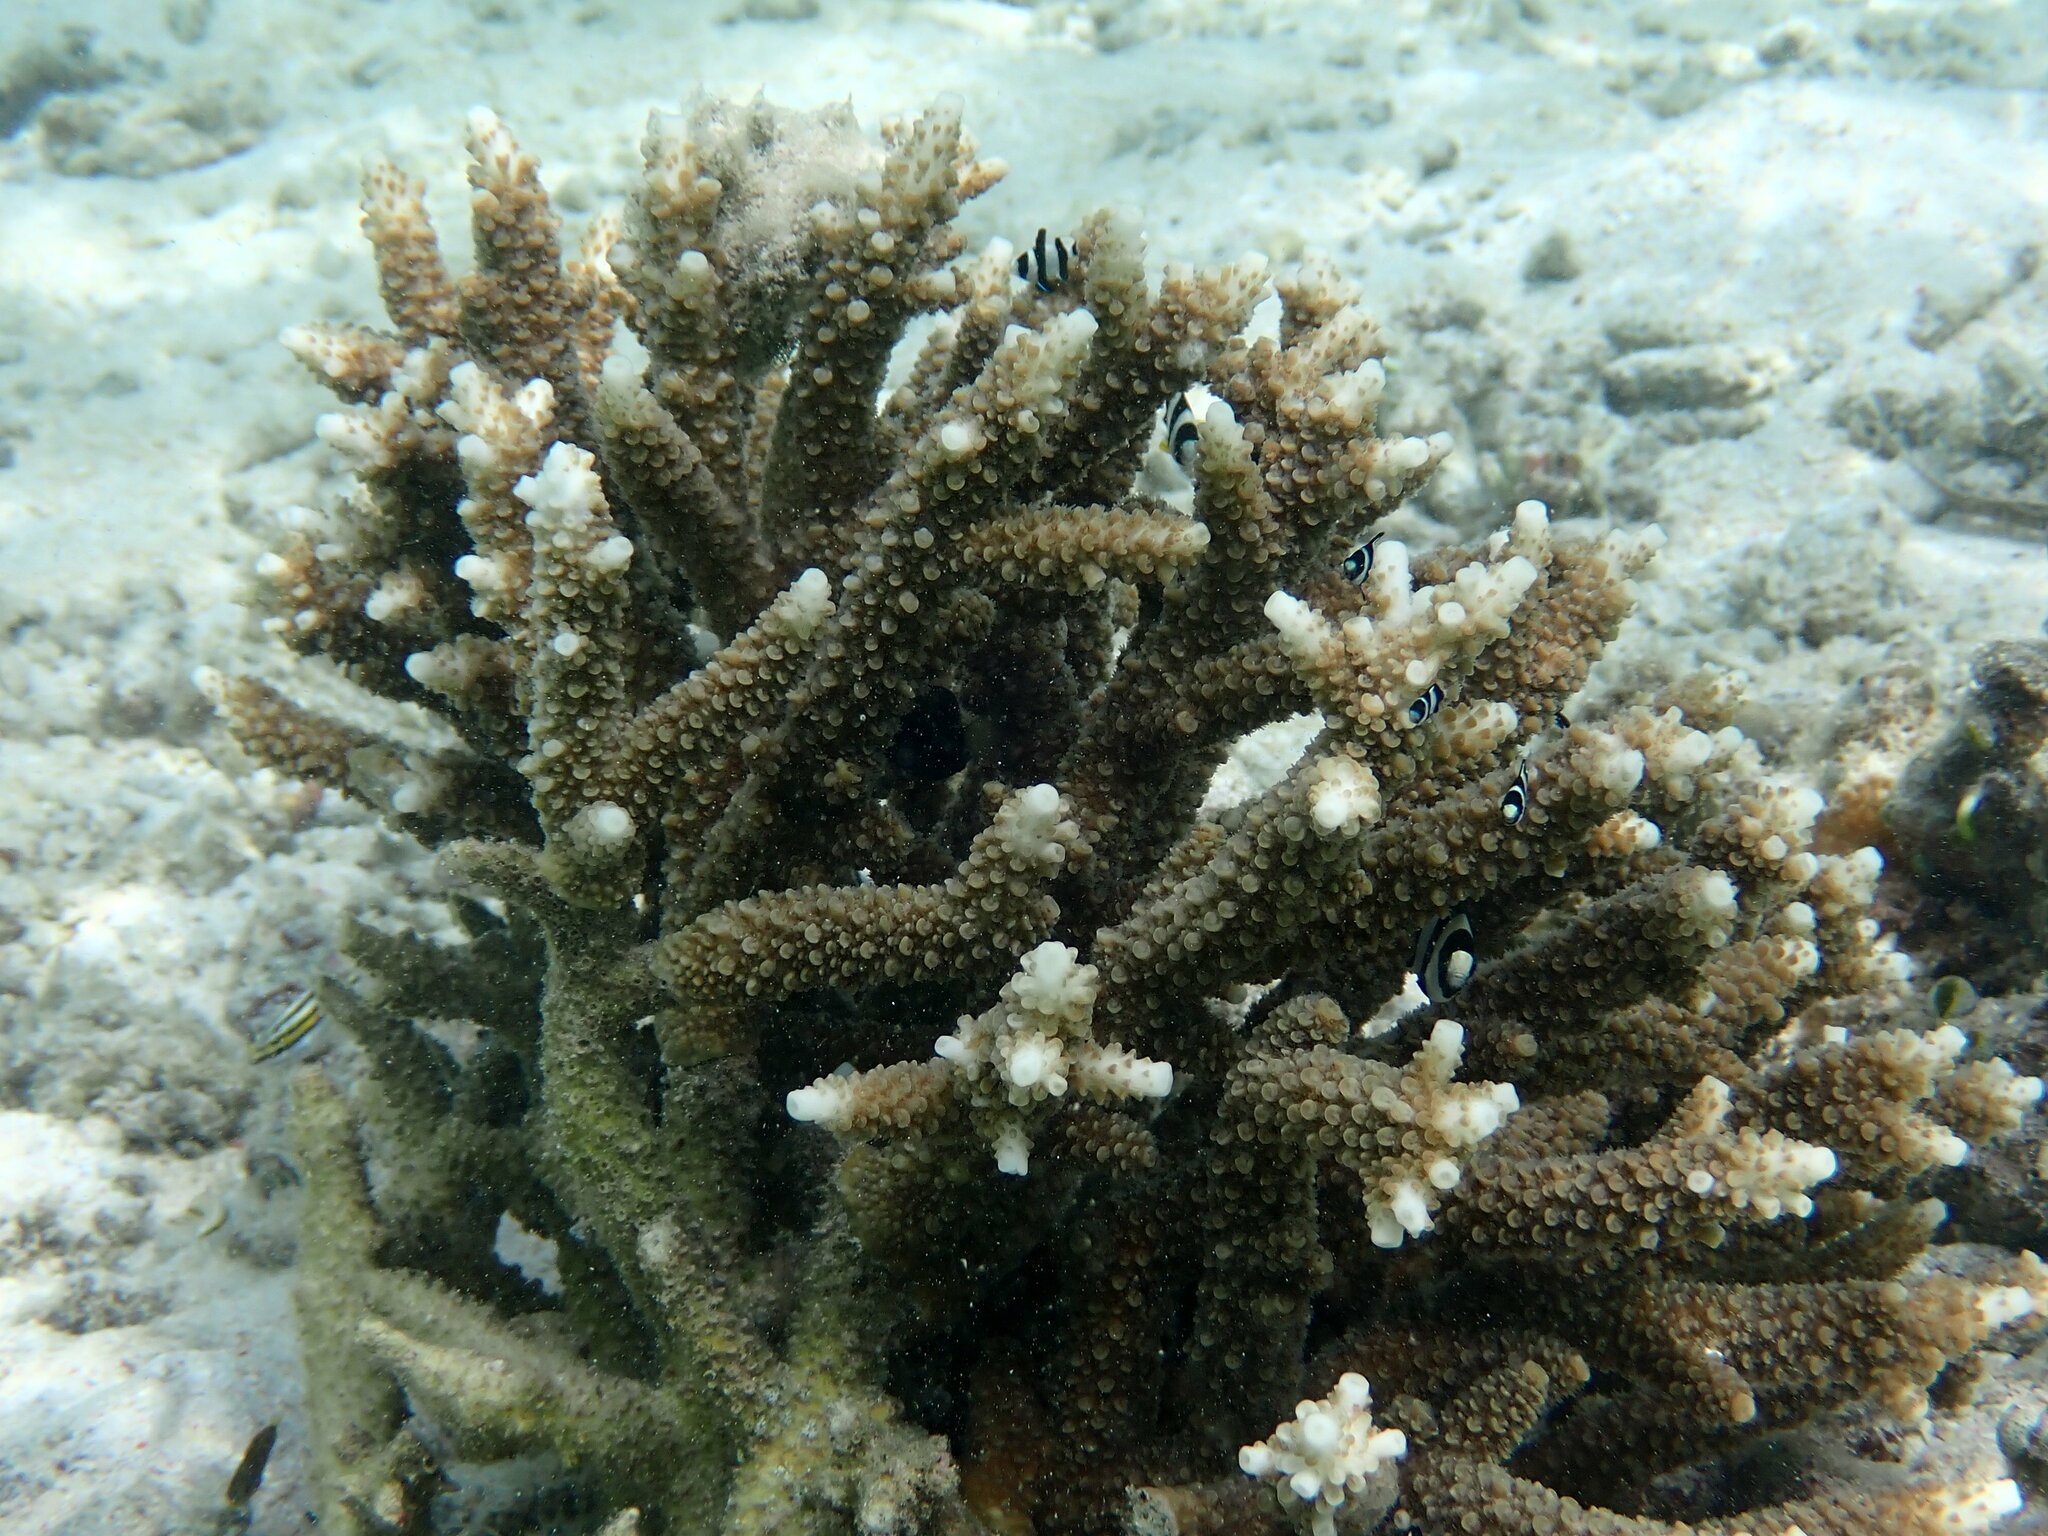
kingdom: Animalia
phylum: Chordata
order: Perciformes
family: Pomacentridae
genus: Dascyllus
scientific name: Dascyllus aruanus
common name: Humbug dascyllus
